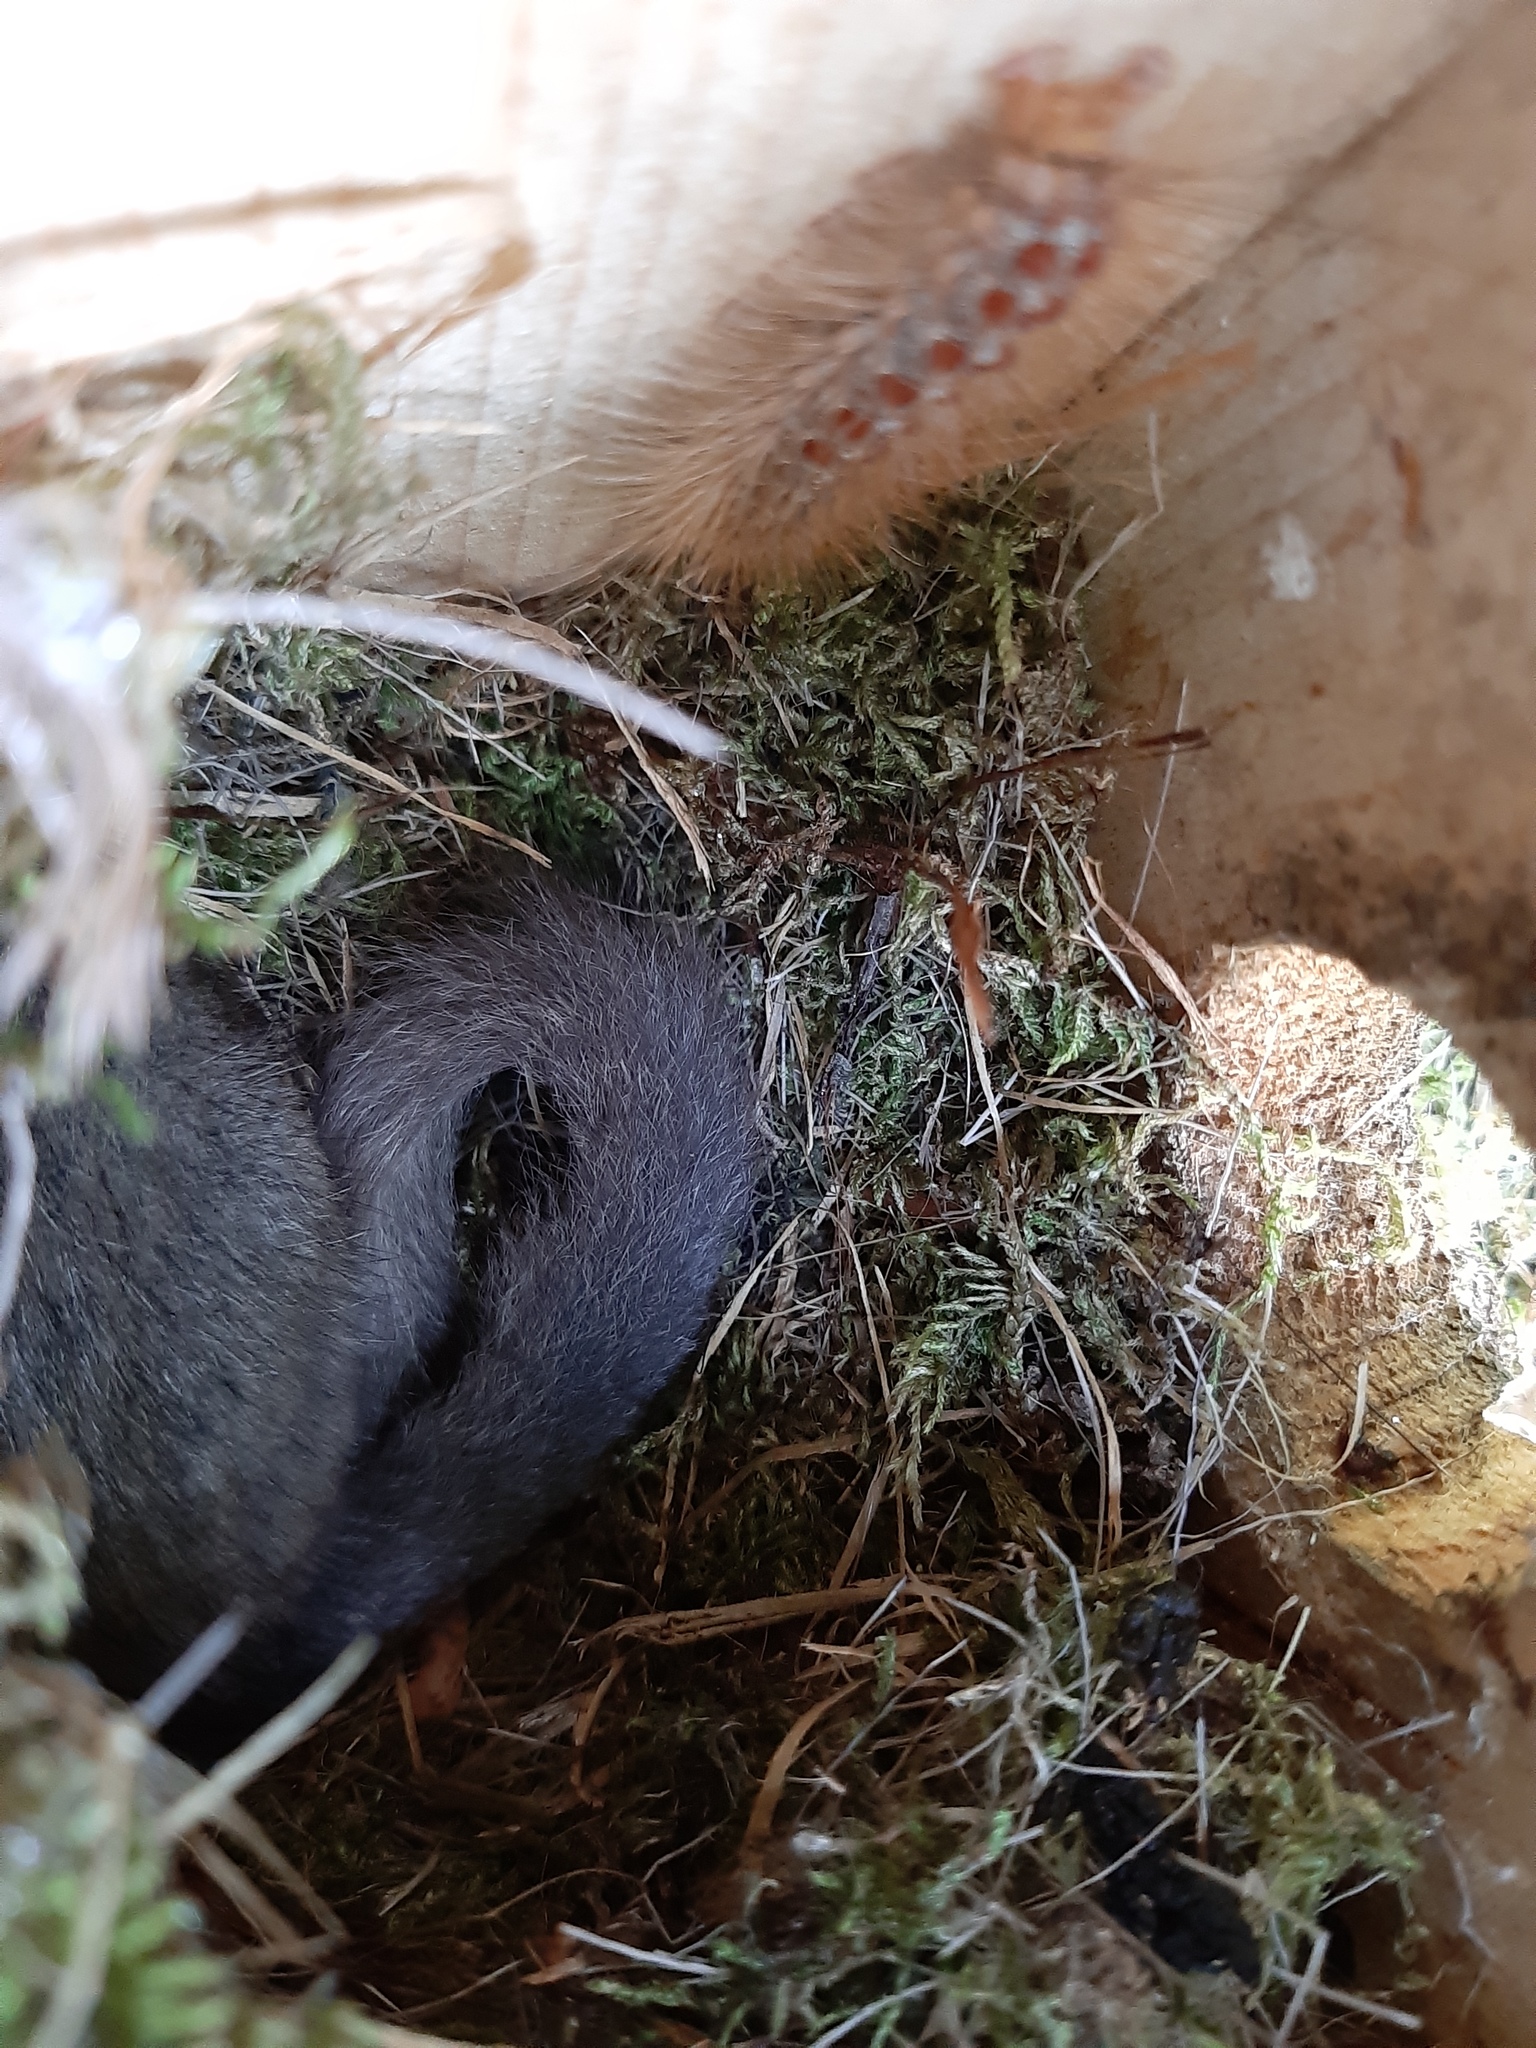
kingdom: Animalia
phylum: Chordata
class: Mammalia
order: Rodentia
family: Gliridae
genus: Glis
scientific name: Glis glis
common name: Fat dormouse
